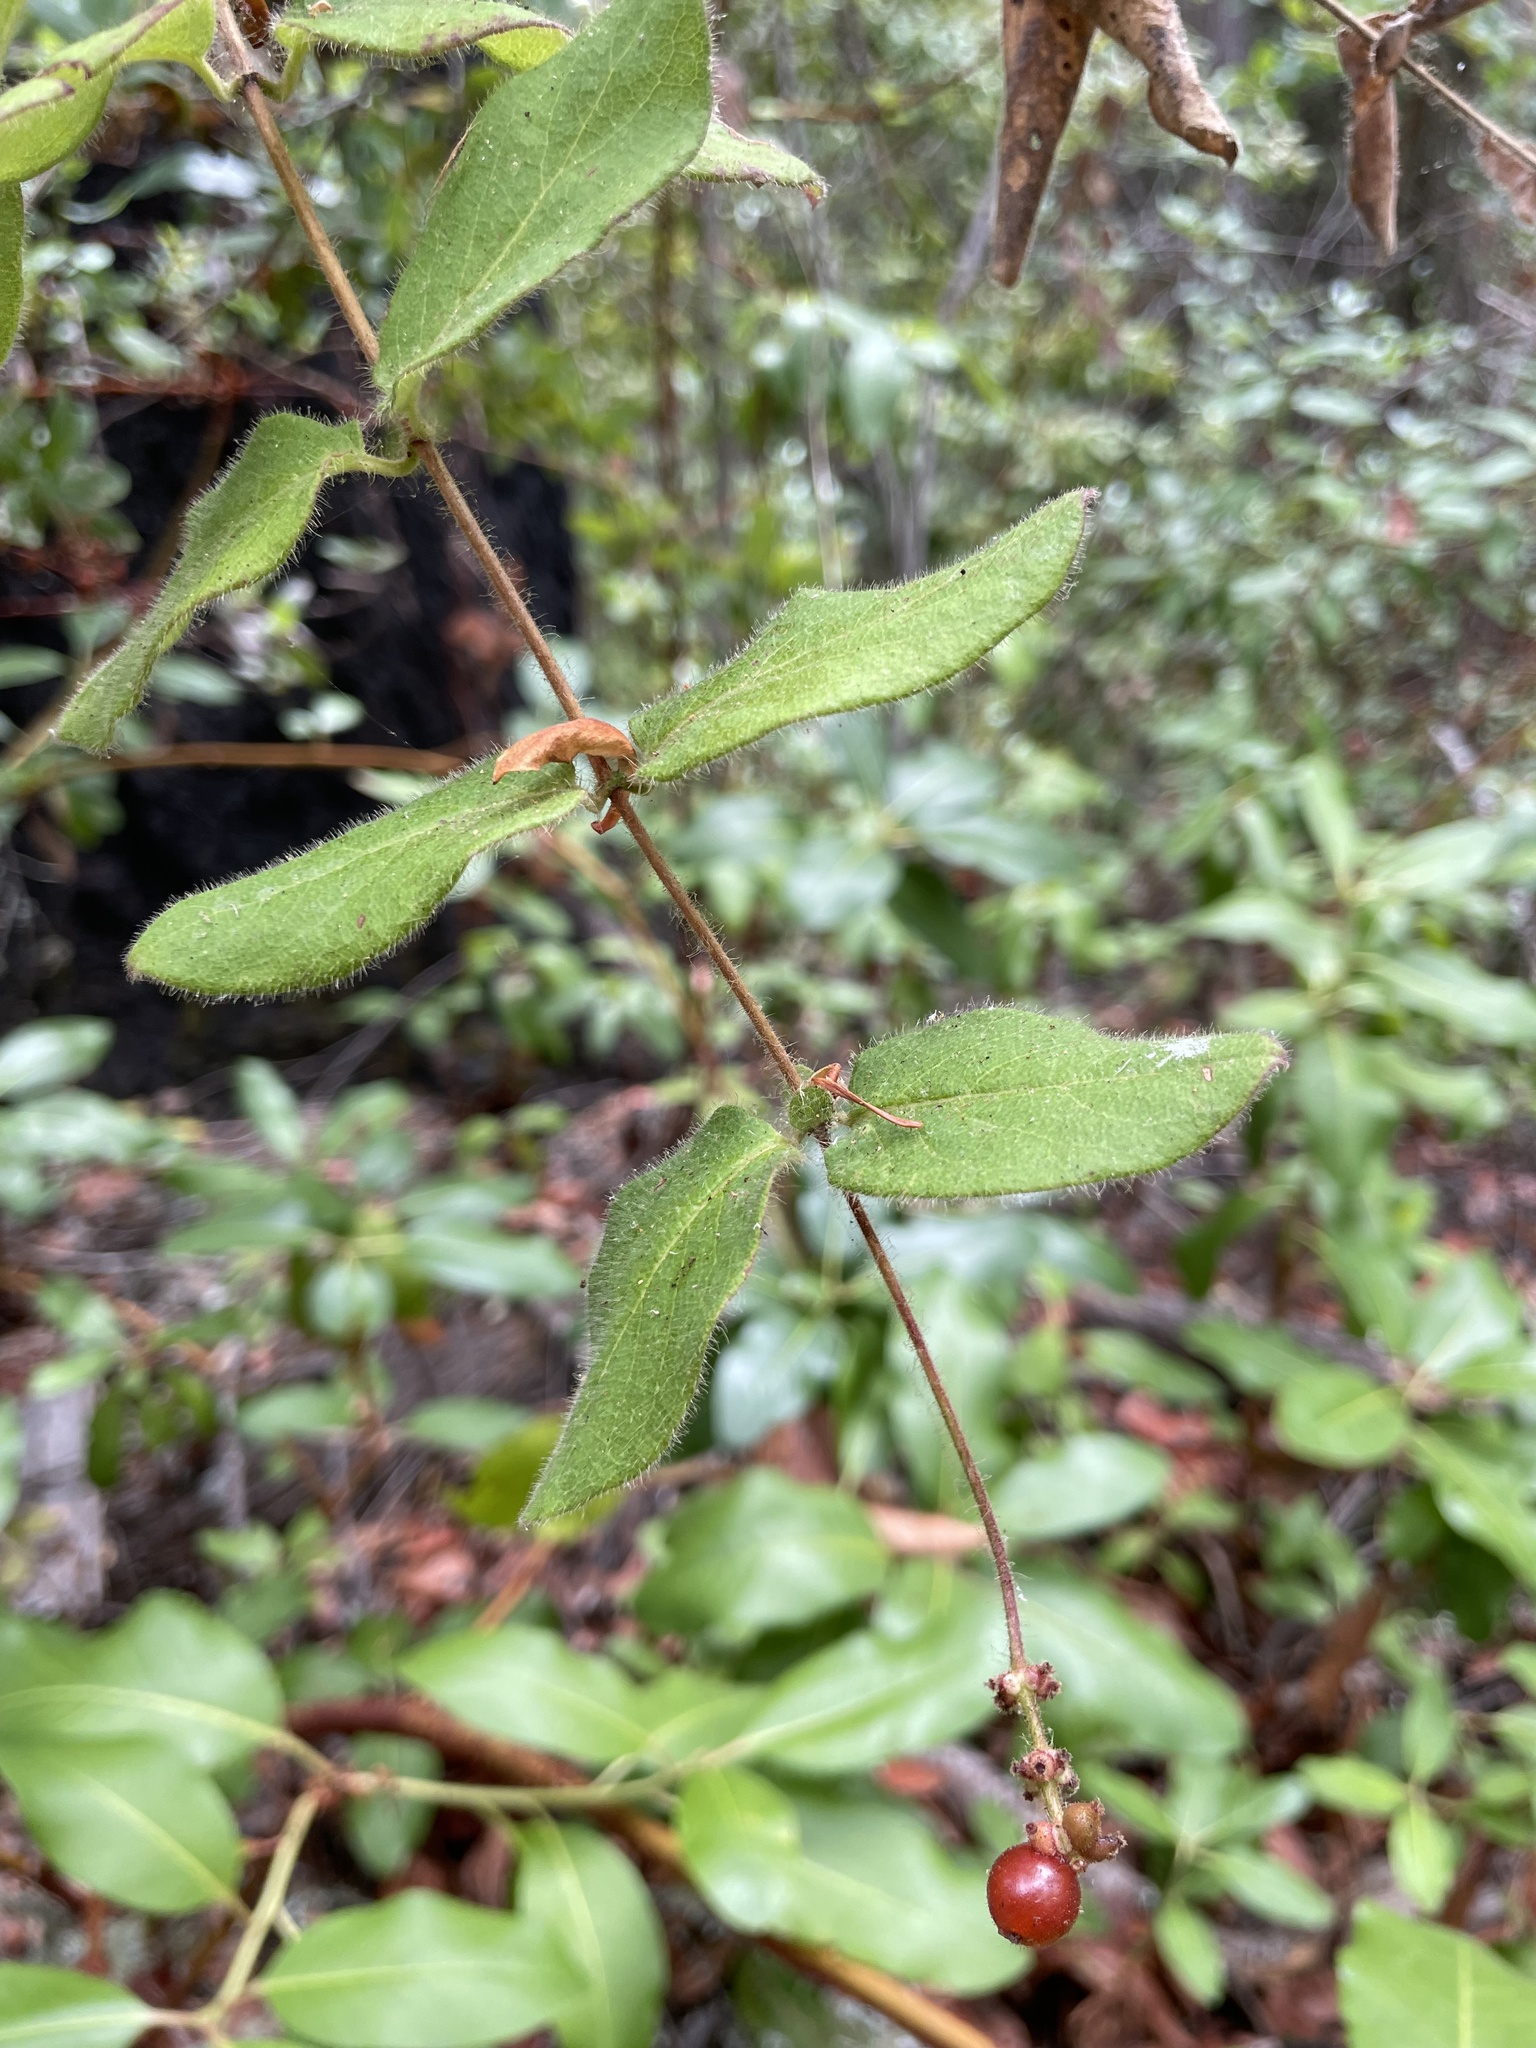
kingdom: Plantae
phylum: Tracheophyta
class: Magnoliopsida
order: Dipsacales
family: Caprifoliaceae
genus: Lonicera
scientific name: Lonicera hispidula
